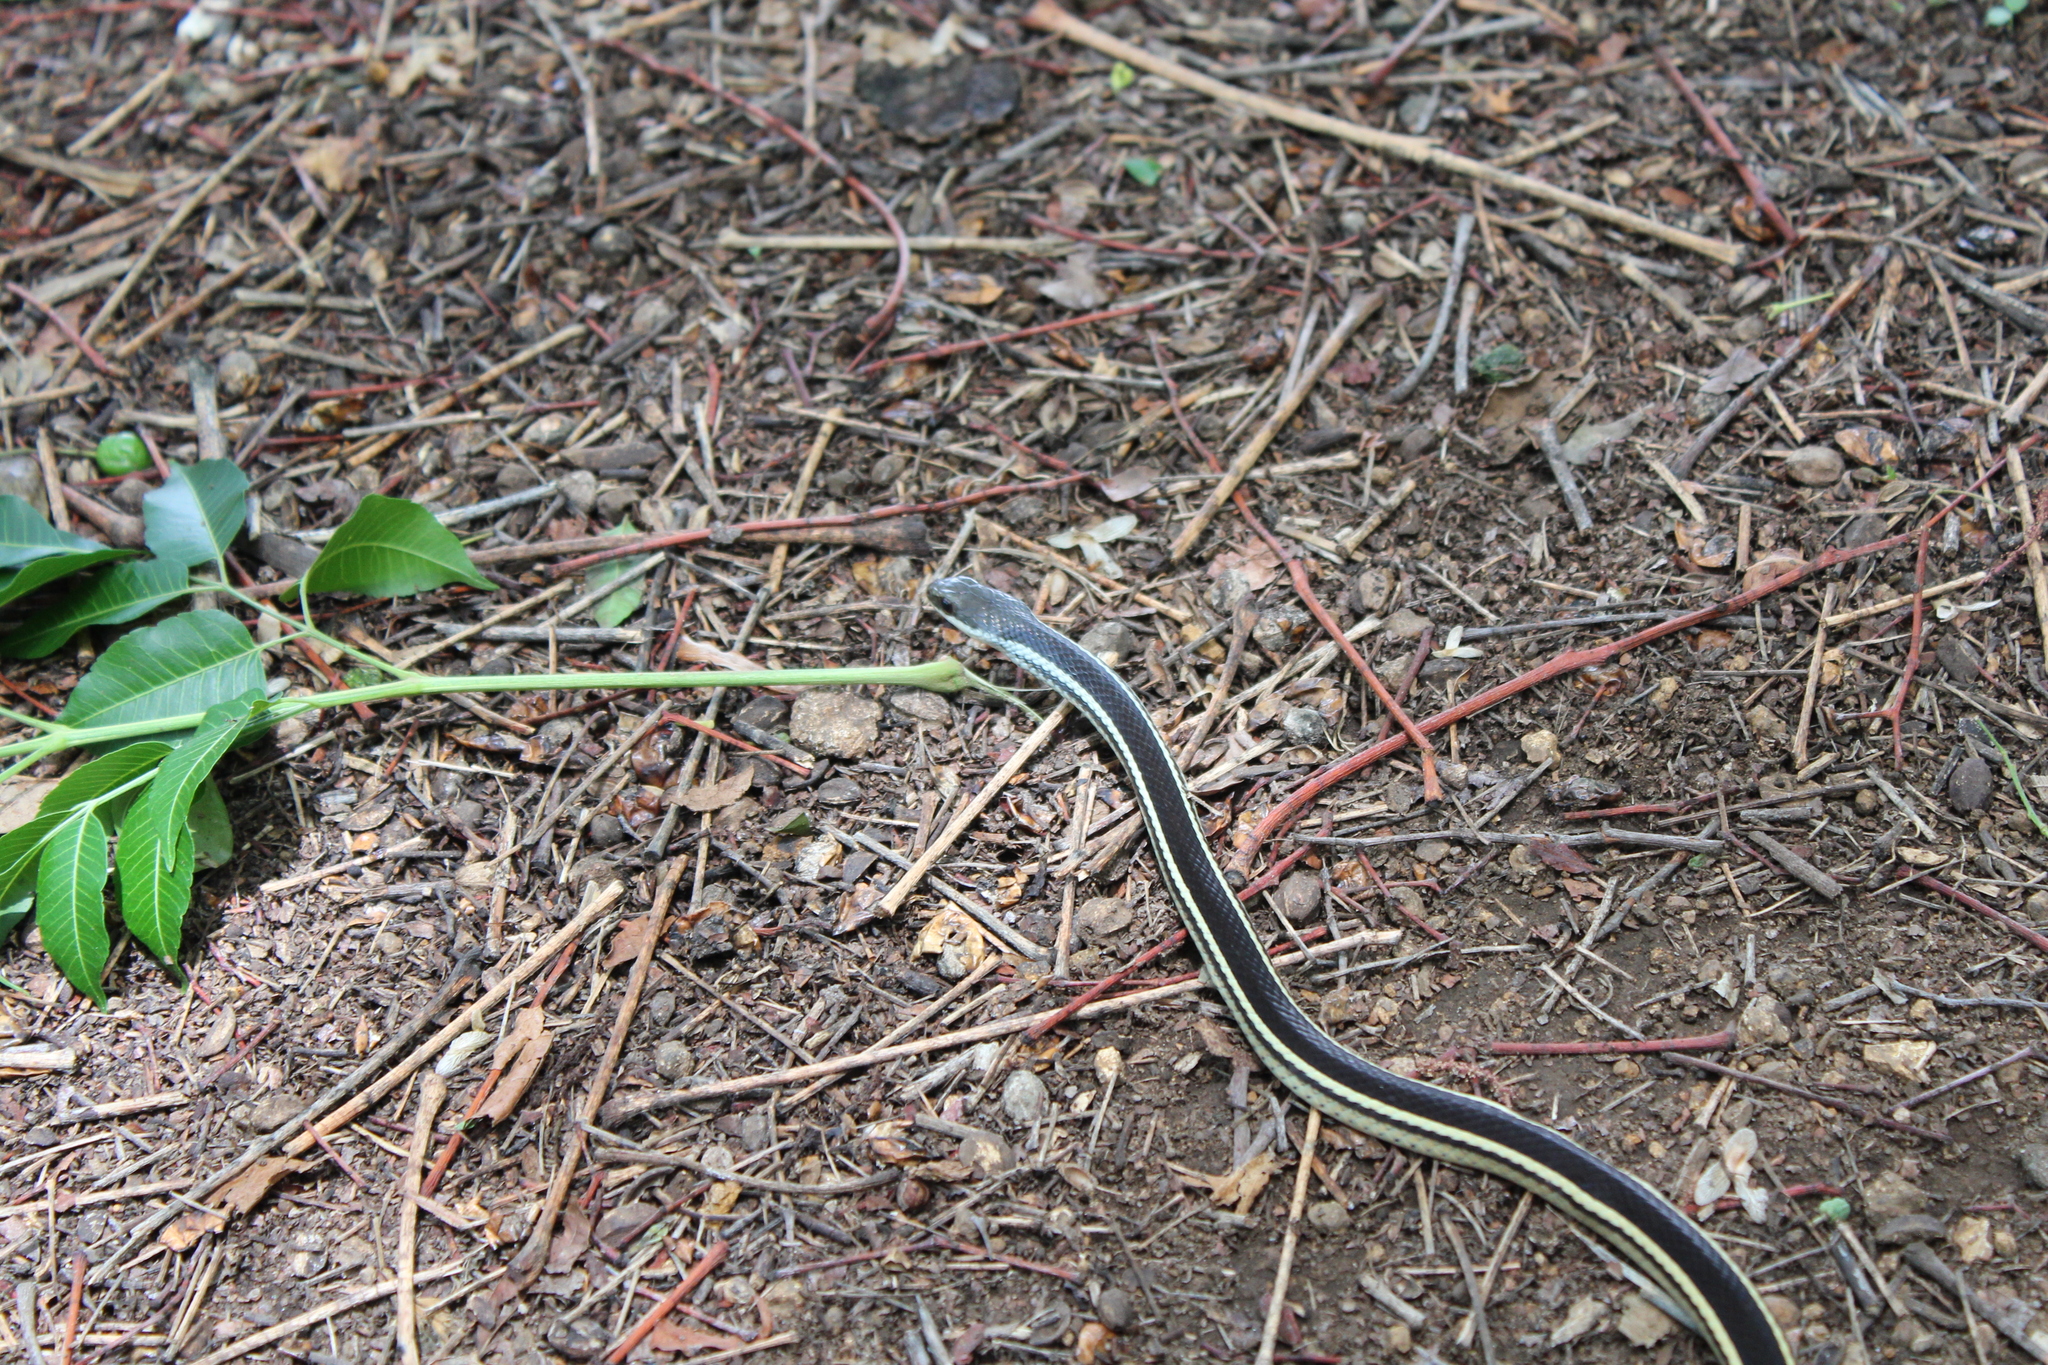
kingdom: Animalia
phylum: Chordata
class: Squamata
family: Pseudoxyrhophiidae
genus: Thamnosophis
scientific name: Thamnosophis lateralis
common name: Lateral water snake
